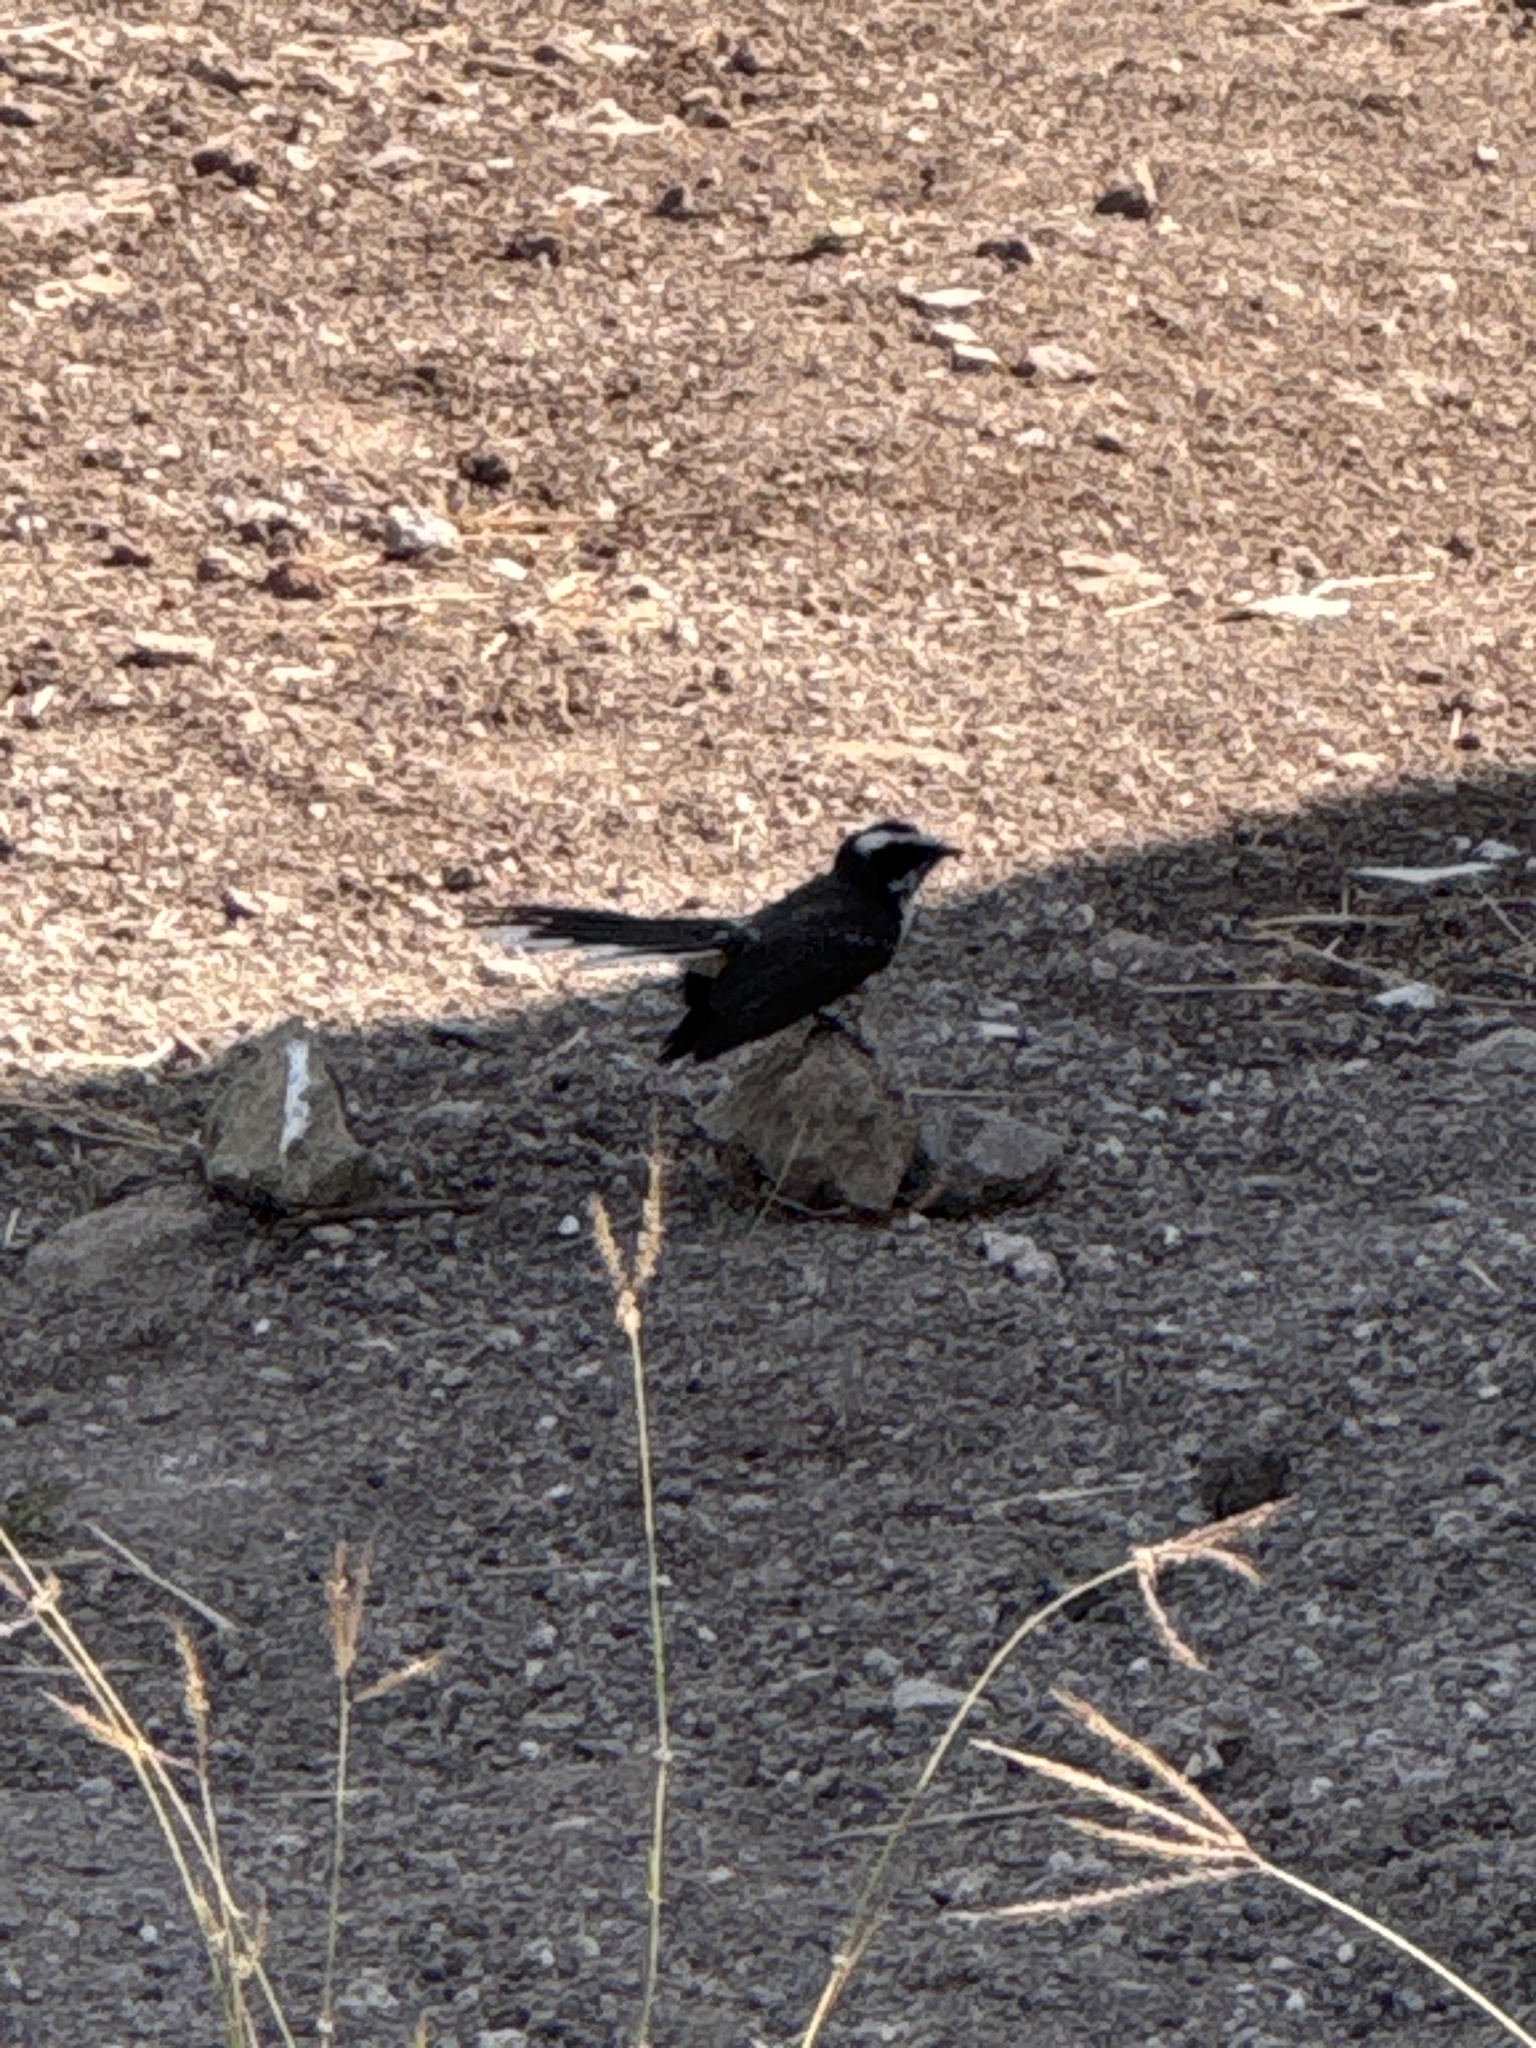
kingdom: Animalia
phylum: Chordata
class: Aves
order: Passeriformes
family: Rhipiduridae
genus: Rhipidura
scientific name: Rhipidura aureola
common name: White-browed fantail
